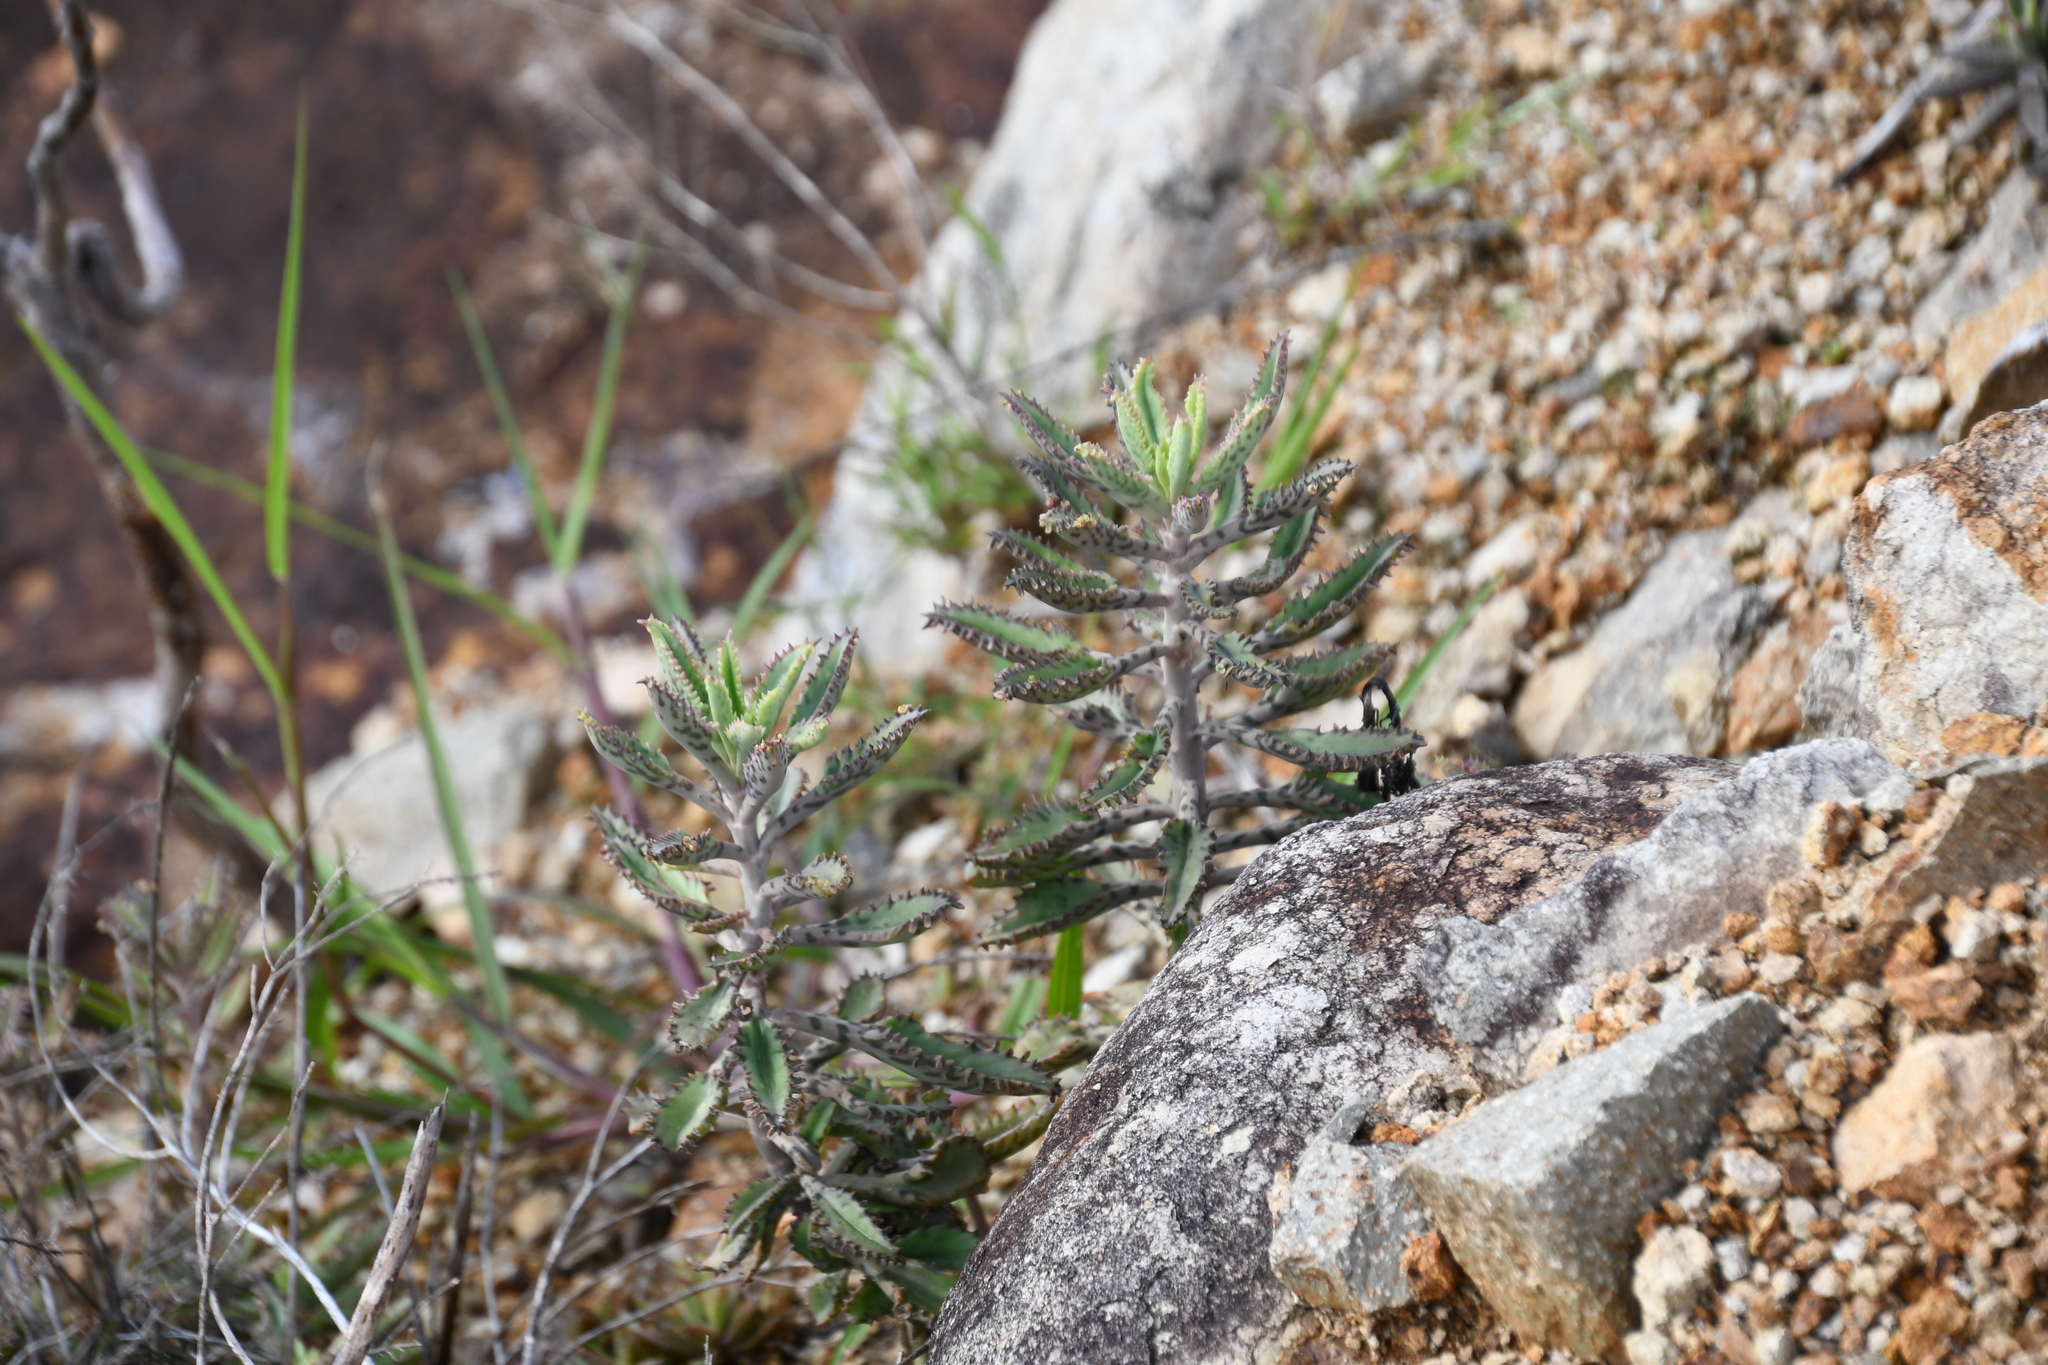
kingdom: Plantae
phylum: Tracheophyta
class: Magnoliopsida
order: Saxifragales
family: Crassulaceae
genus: Kalanchoe
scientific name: Kalanchoe houghtonii
